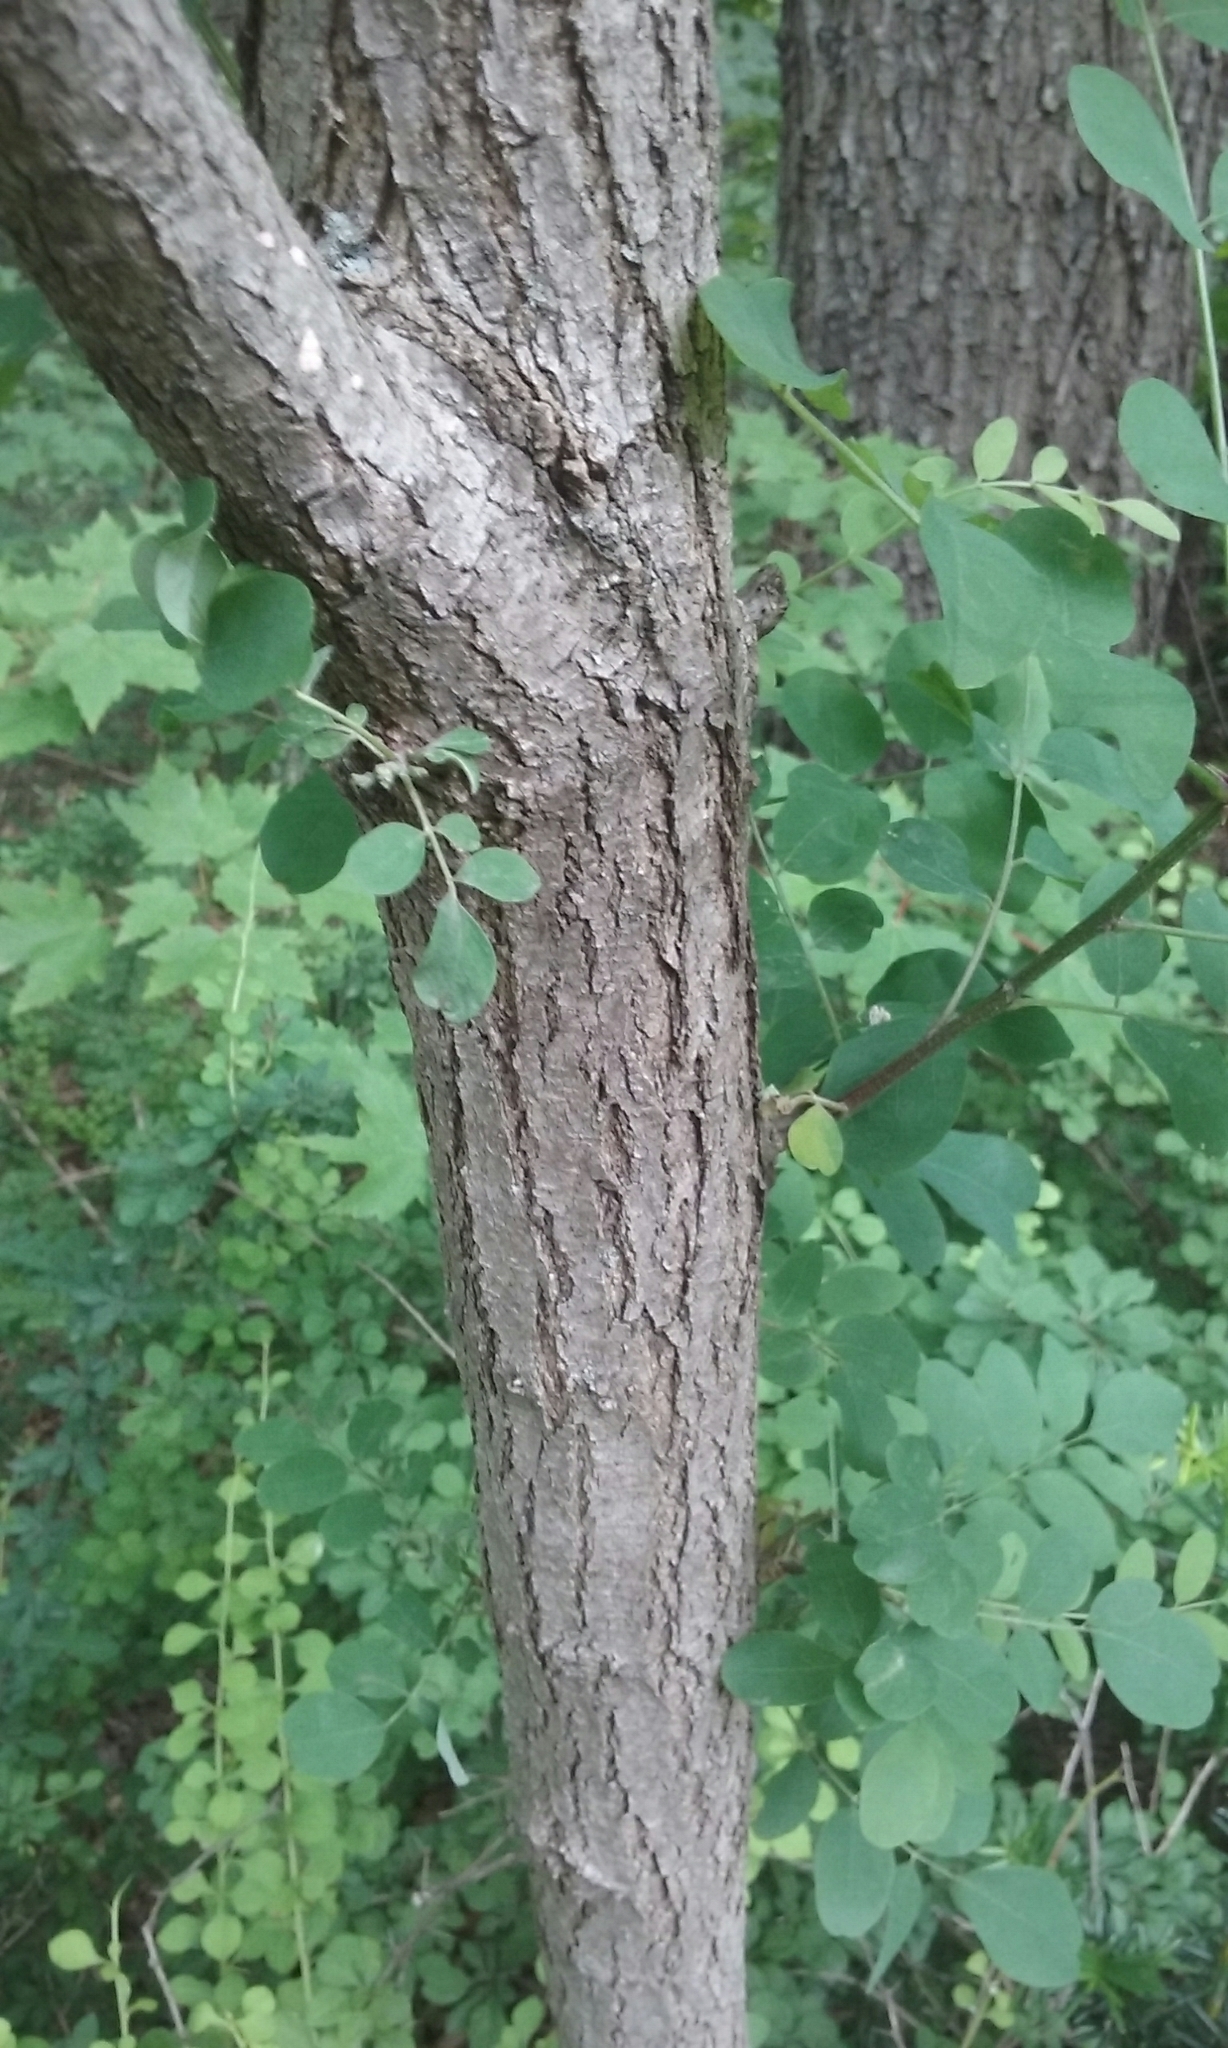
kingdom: Plantae
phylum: Tracheophyta
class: Magnoliopsida
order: Fabales
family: Fabaceae
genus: Robinia
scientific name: Robinia pseudoacacia
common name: Black locust
